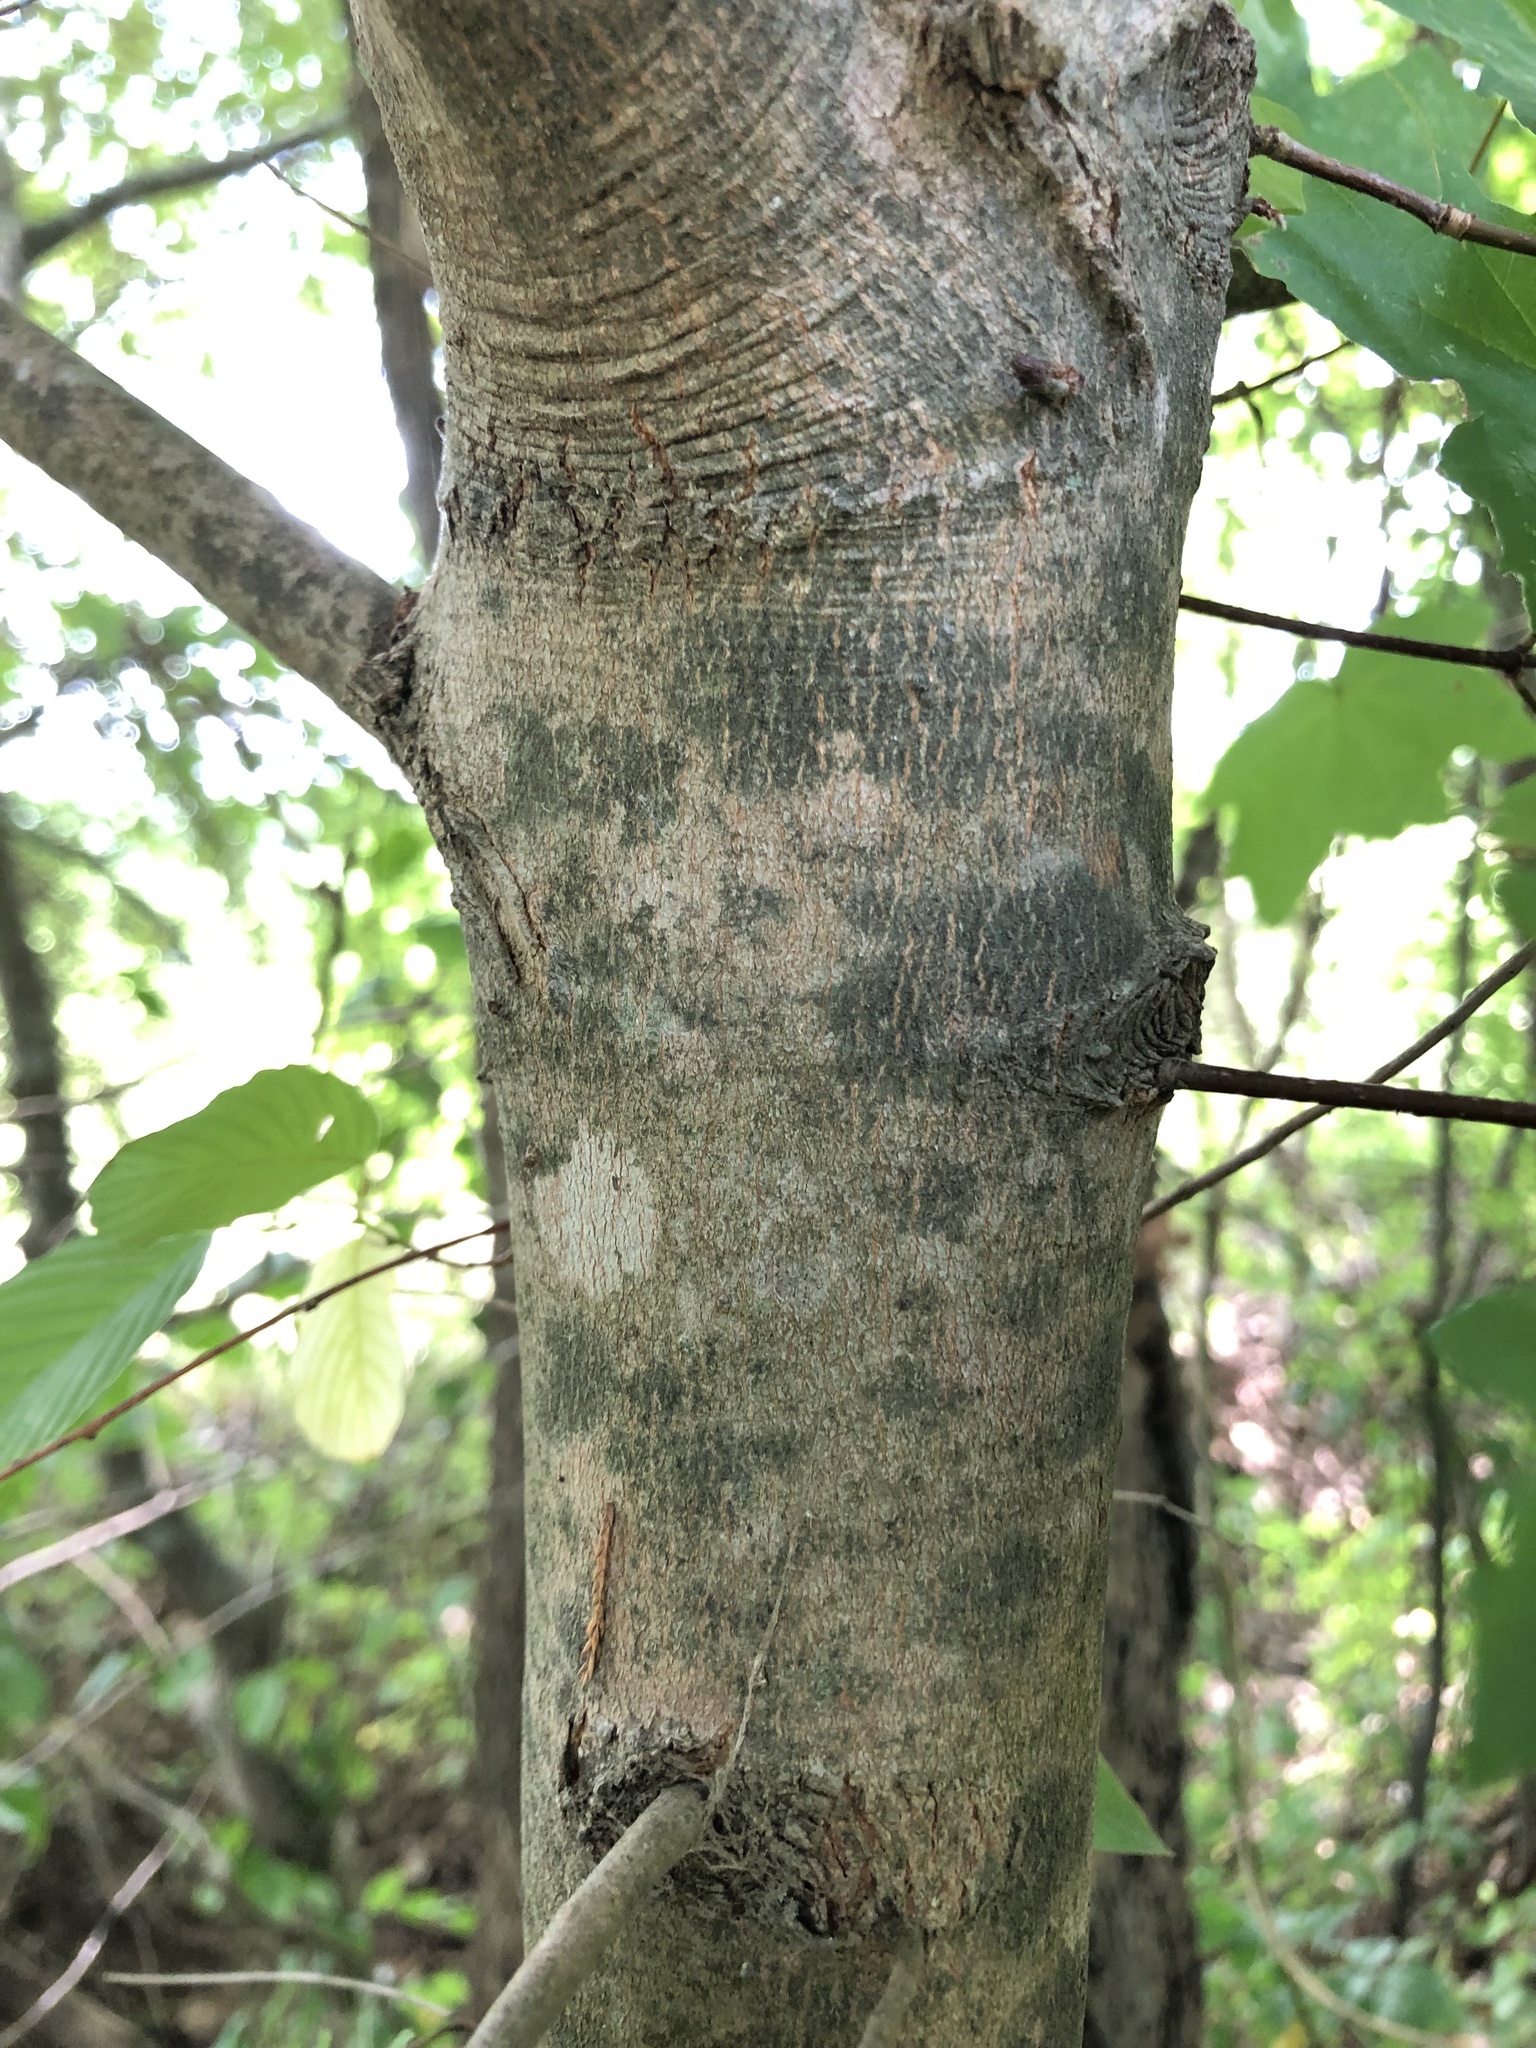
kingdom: Plantae
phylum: Tracheophyta
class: Magnoliopsida
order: Sapindales
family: Sapindaceae
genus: Acer
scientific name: Acer saccharum
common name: Sugar maple
